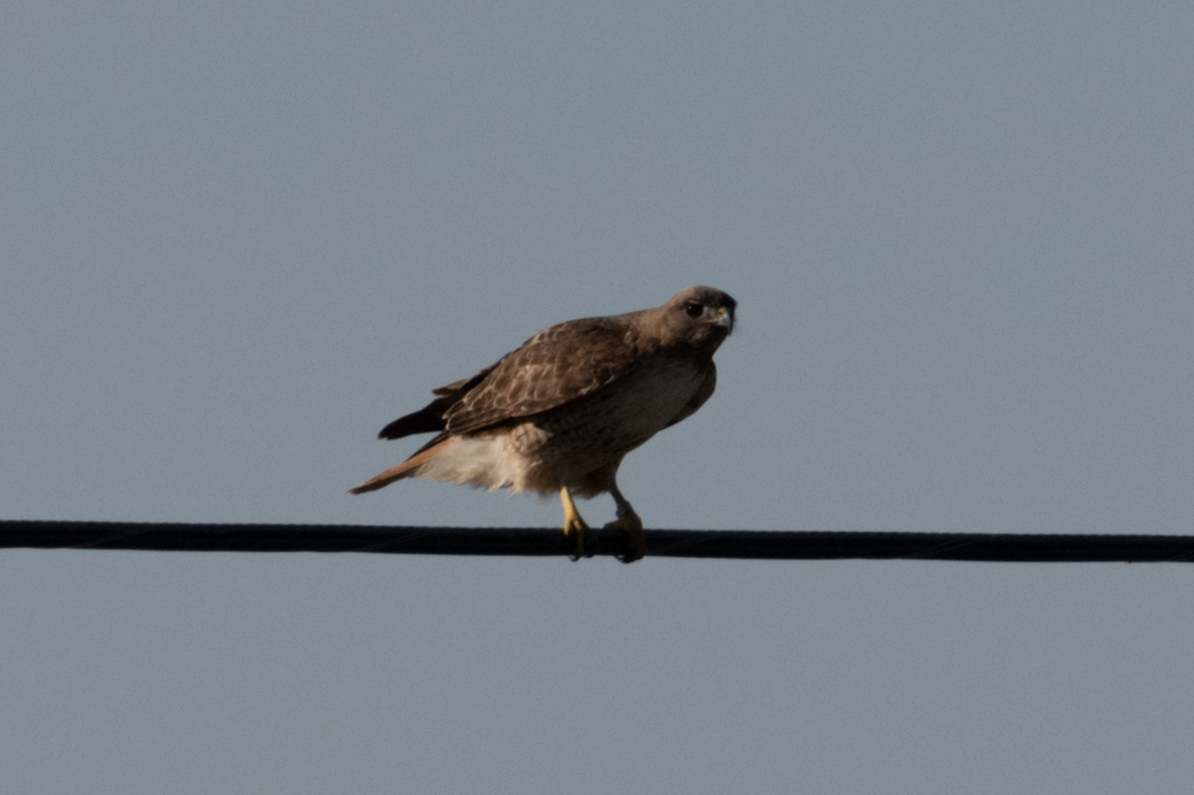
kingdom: Animalia
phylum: Chordata
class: Aves
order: Anseriformes
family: Anatidae
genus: Spatula
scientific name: Spatula clypeata
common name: Northern shoveler
